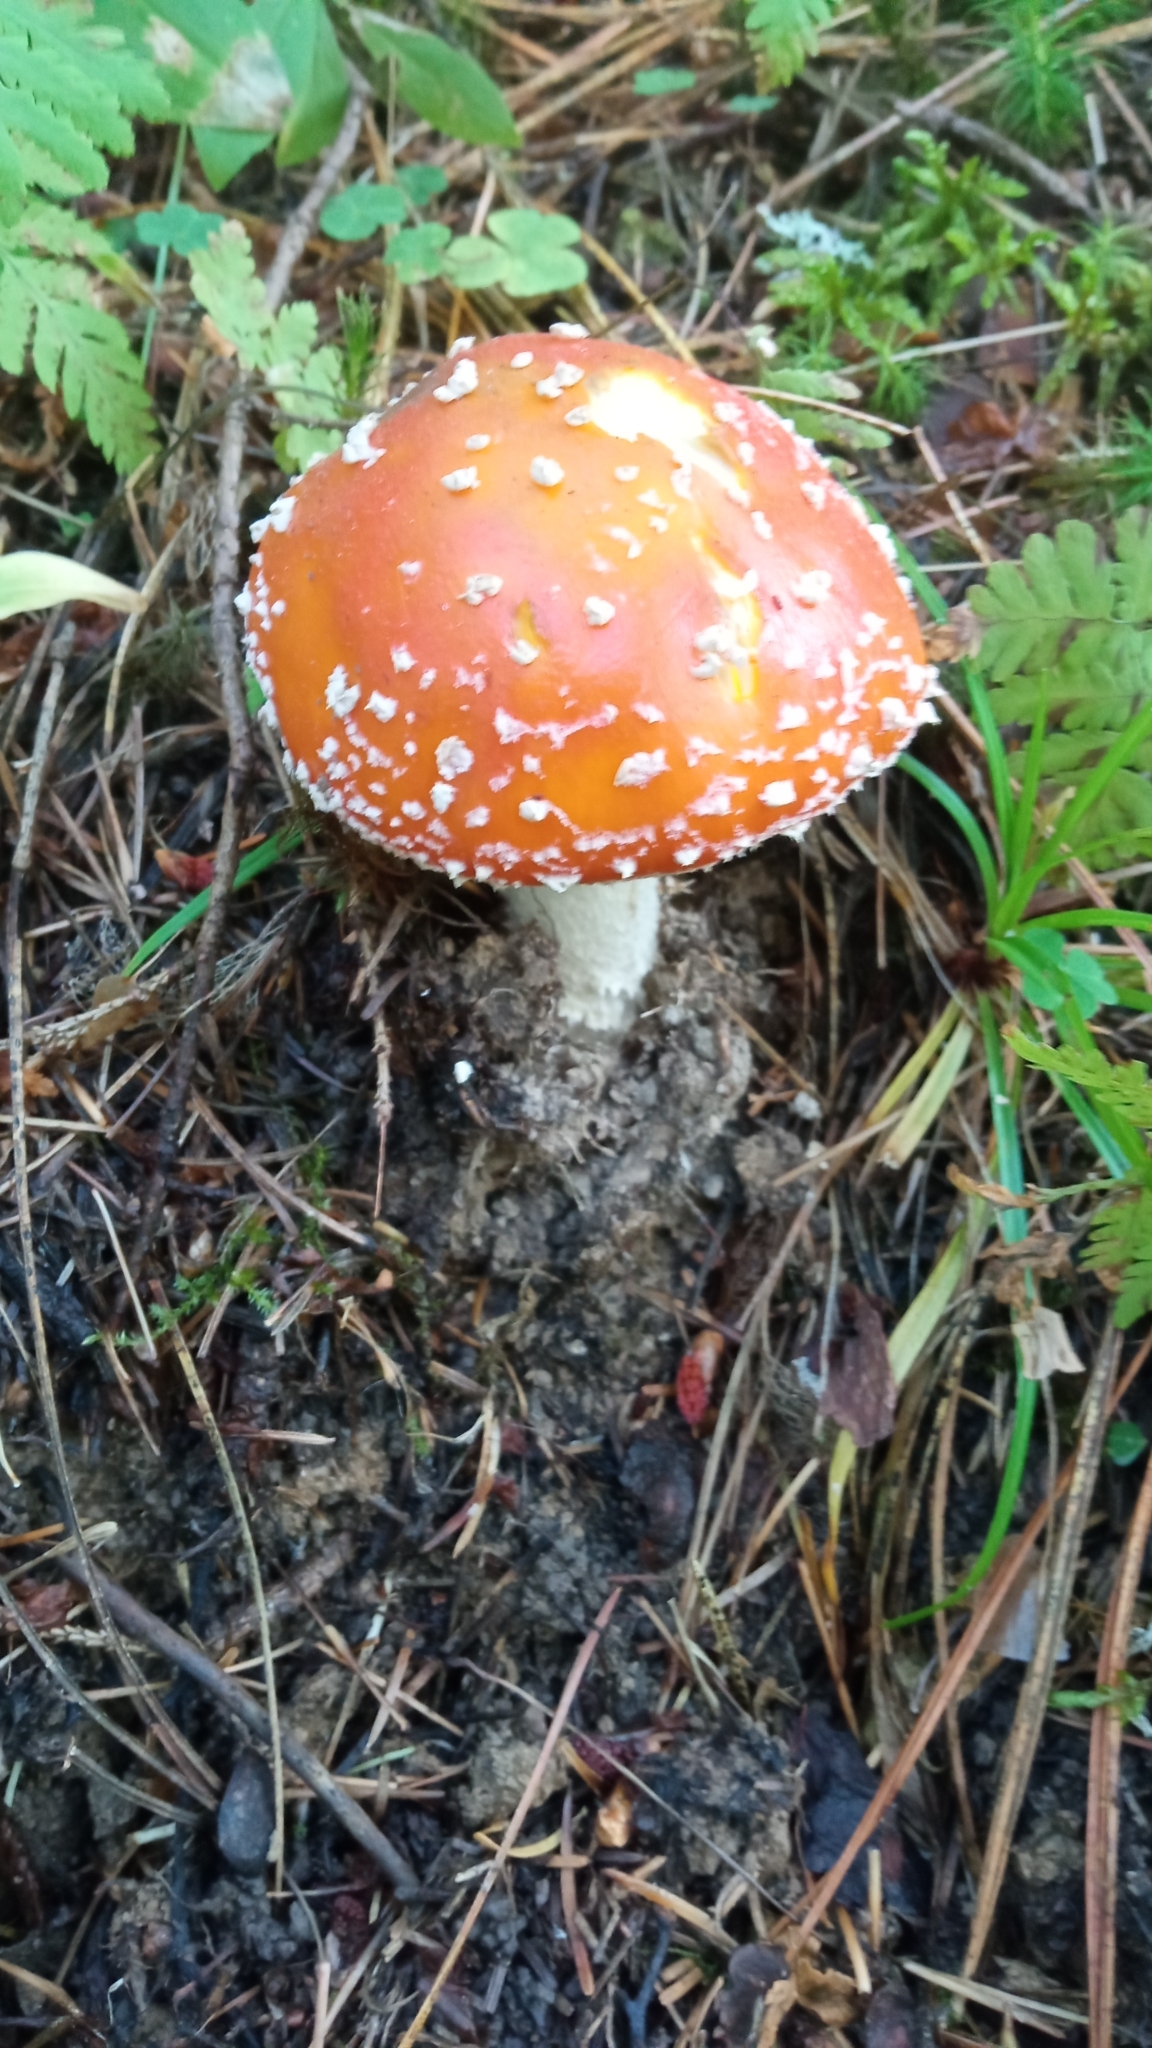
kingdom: Fungi
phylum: Basidiomycota
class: Agaricomycetes
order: Agaricales
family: Amanitaceae
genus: Amanita
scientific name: Amanita muscaria
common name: Fly agaric
